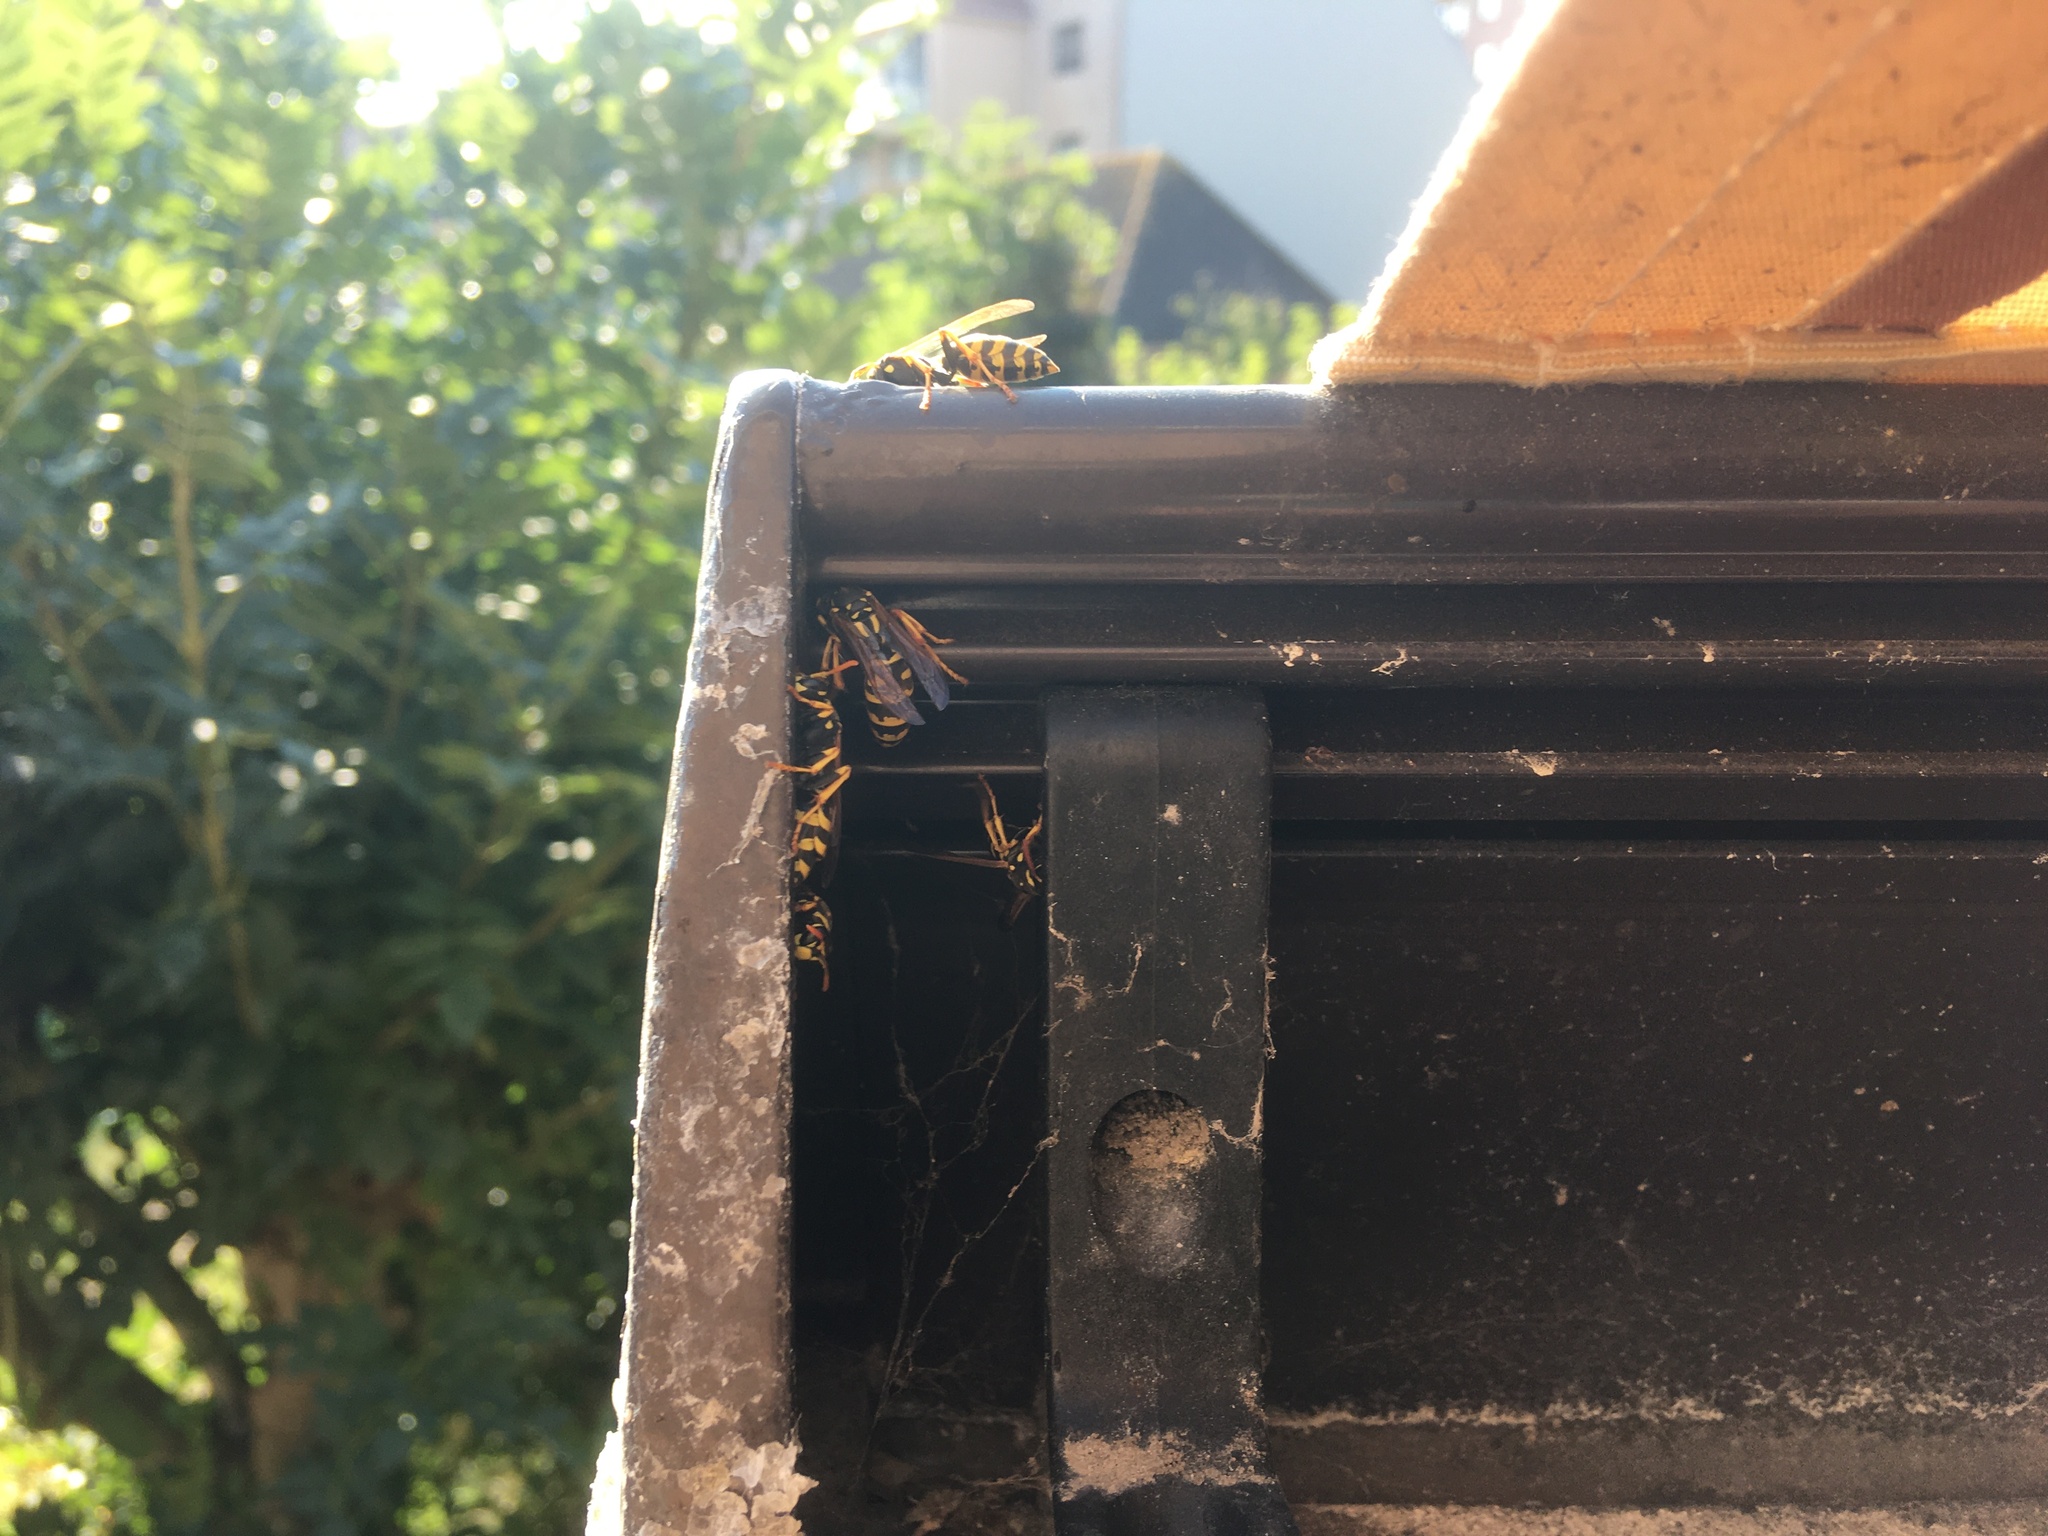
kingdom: Animalia
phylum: Arthropoda
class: Insecta
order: Hymenoptera
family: Eumenidae
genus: Polistes
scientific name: Polistes dominula
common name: Paper wasp
